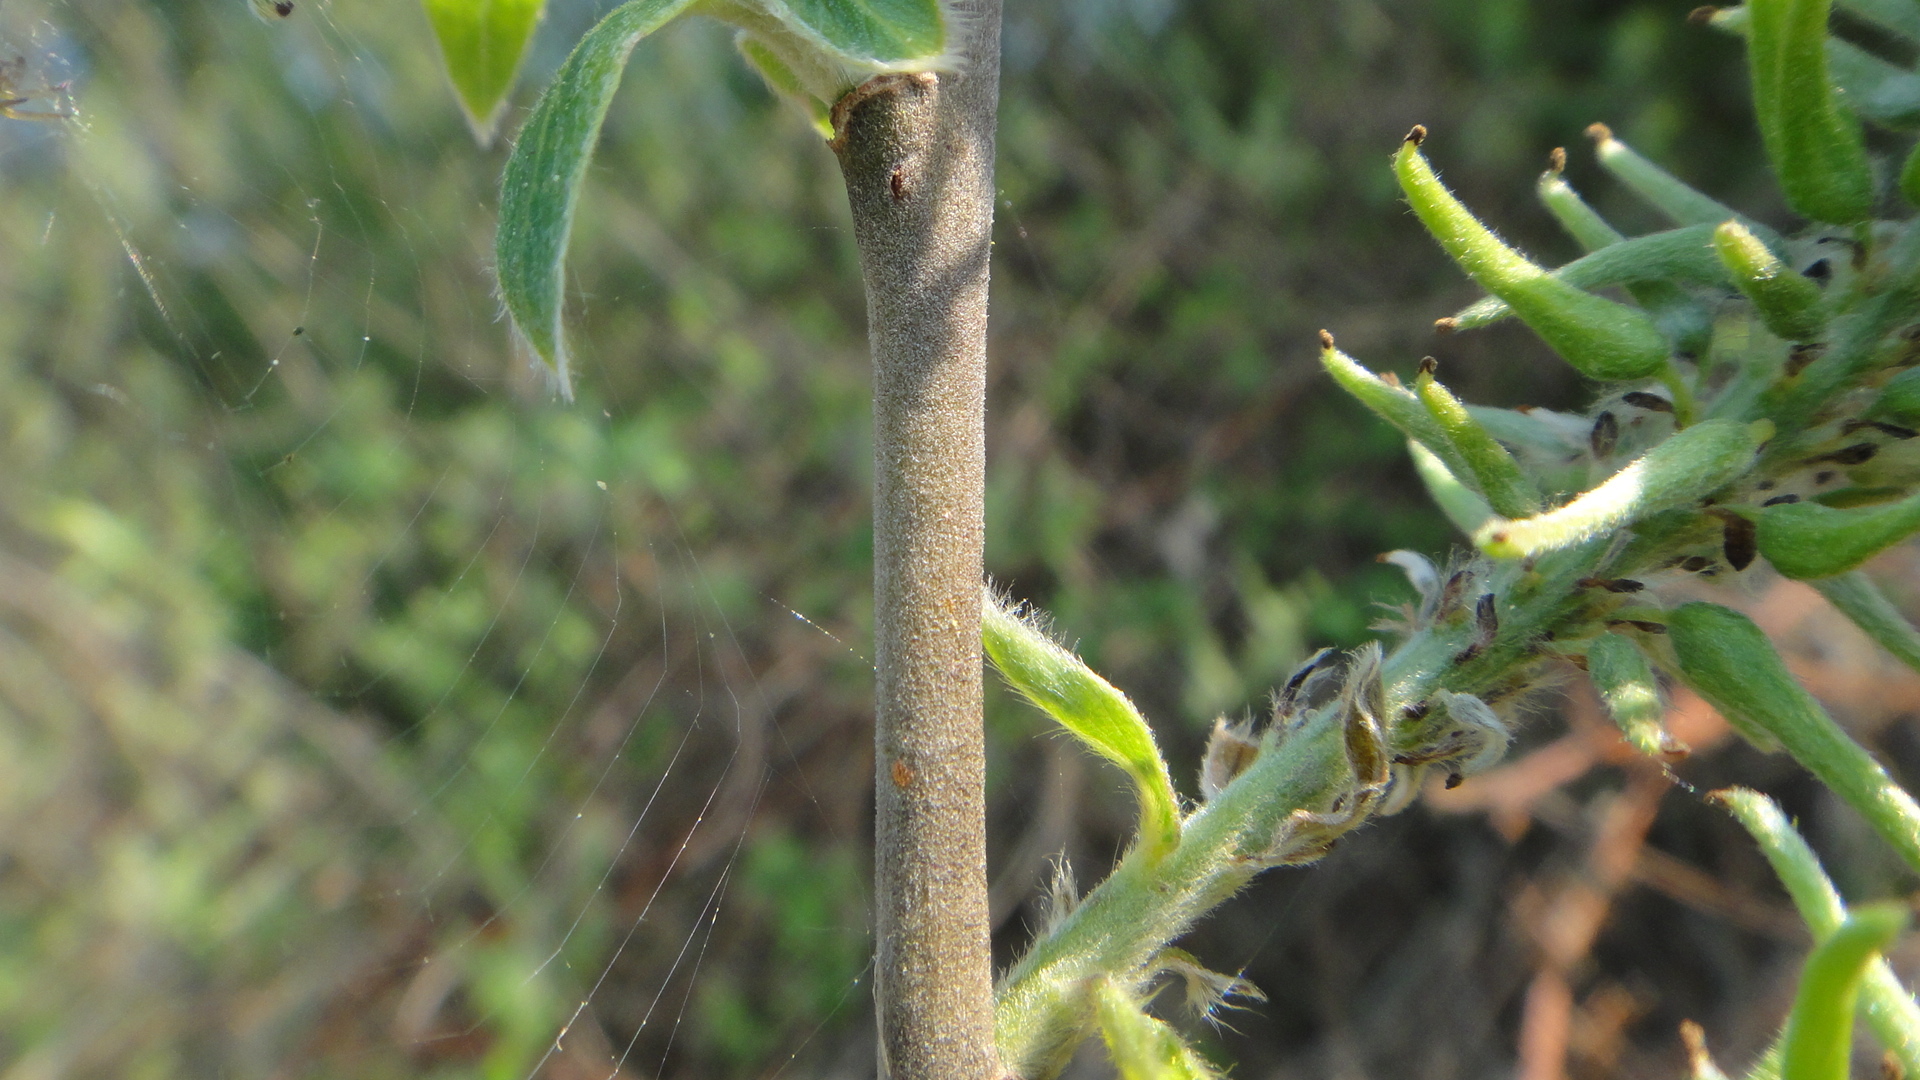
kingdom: Plantae
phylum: Tracheophyta
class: Magnoliopsida
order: Malpighiales
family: Salicaceae
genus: Salix
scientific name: Salix cinerea
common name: Common sallow
